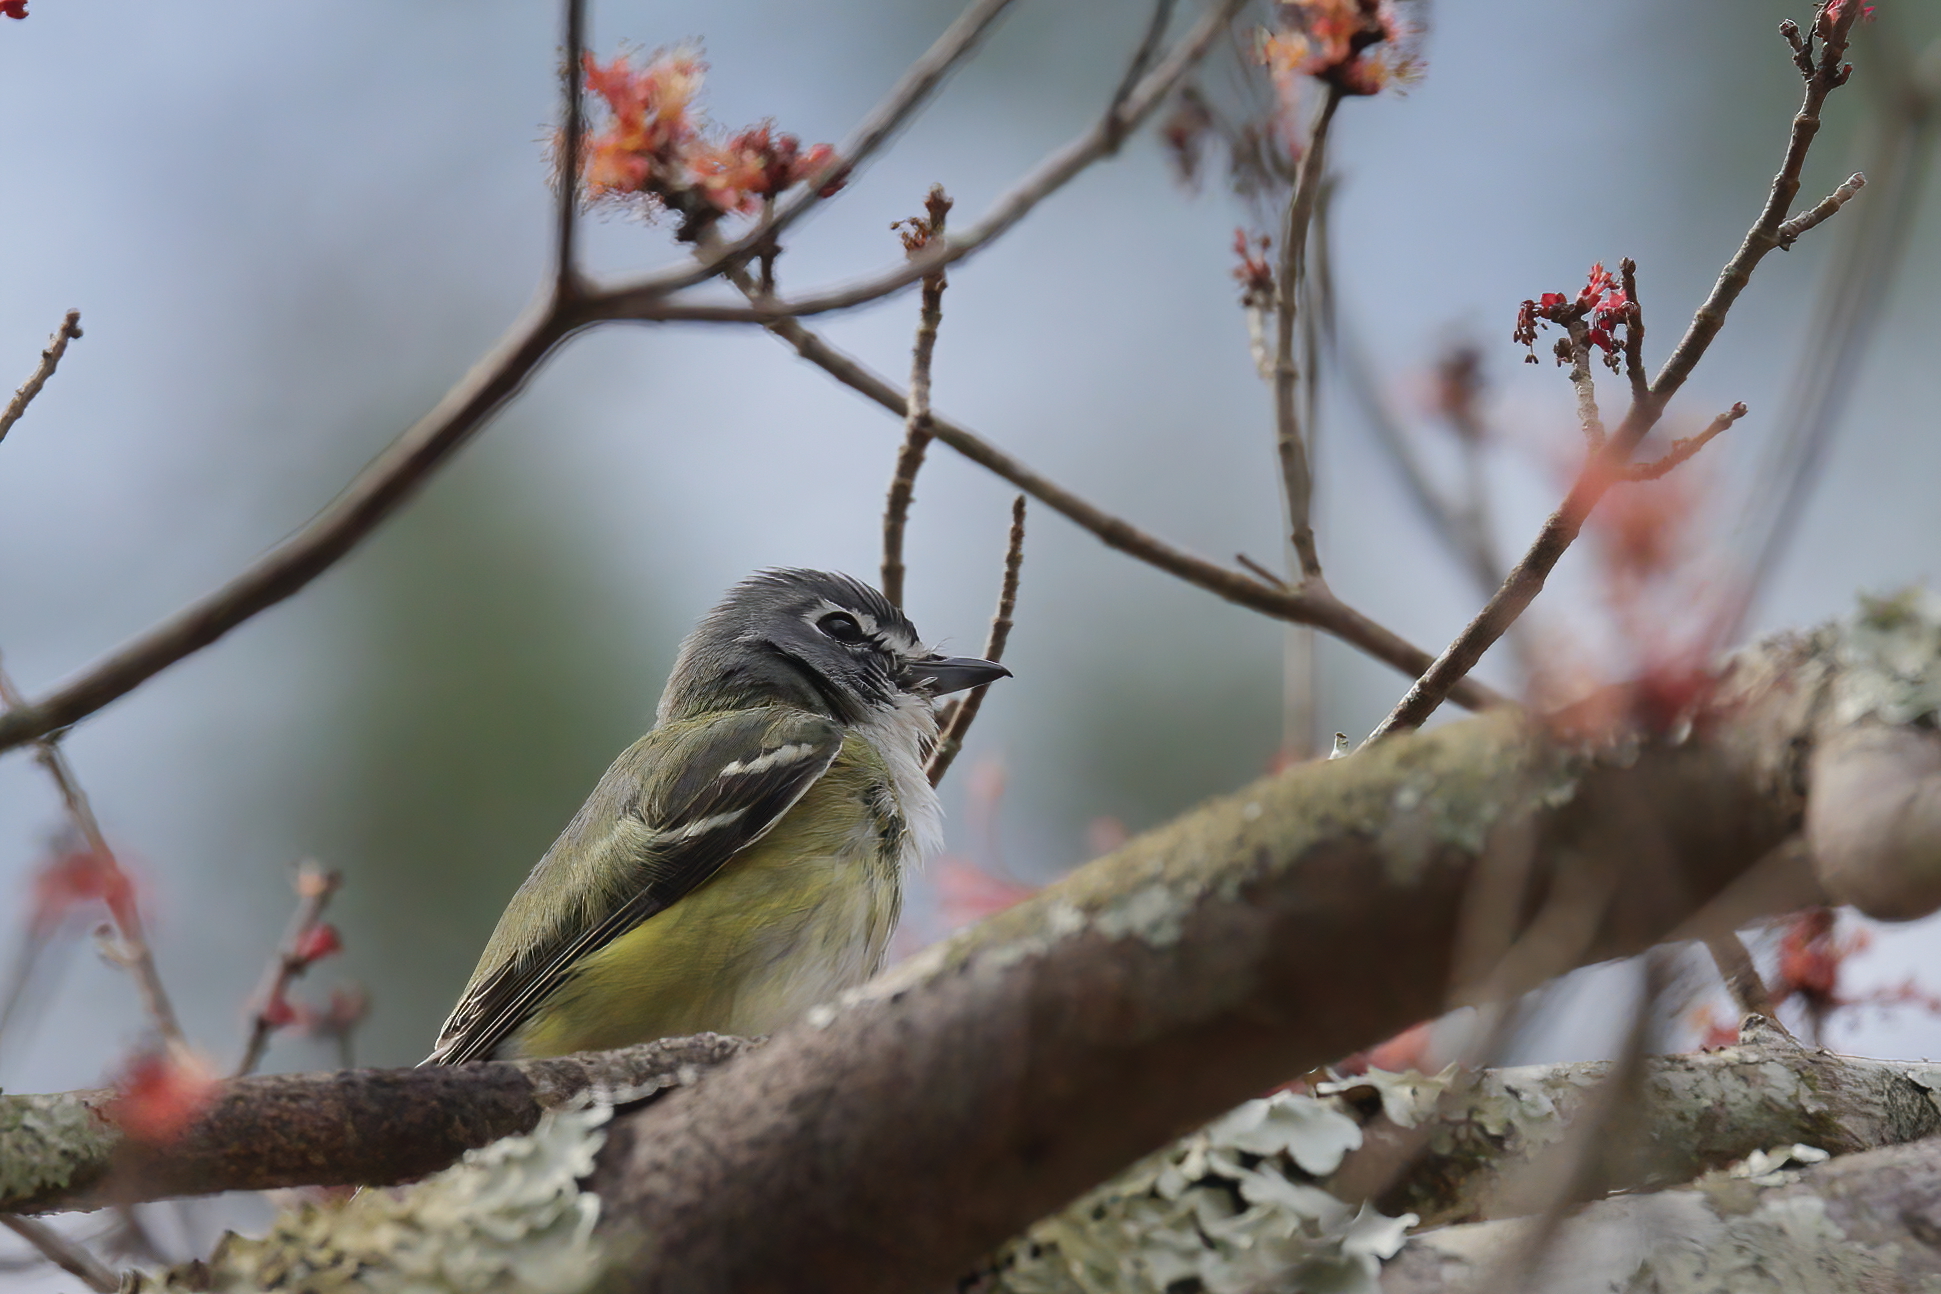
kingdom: Animalia
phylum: Chordata
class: Aves
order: Passeriformes
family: Vireonidae
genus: Vireo
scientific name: Vireo solitarius
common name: Blue-headed vireo
